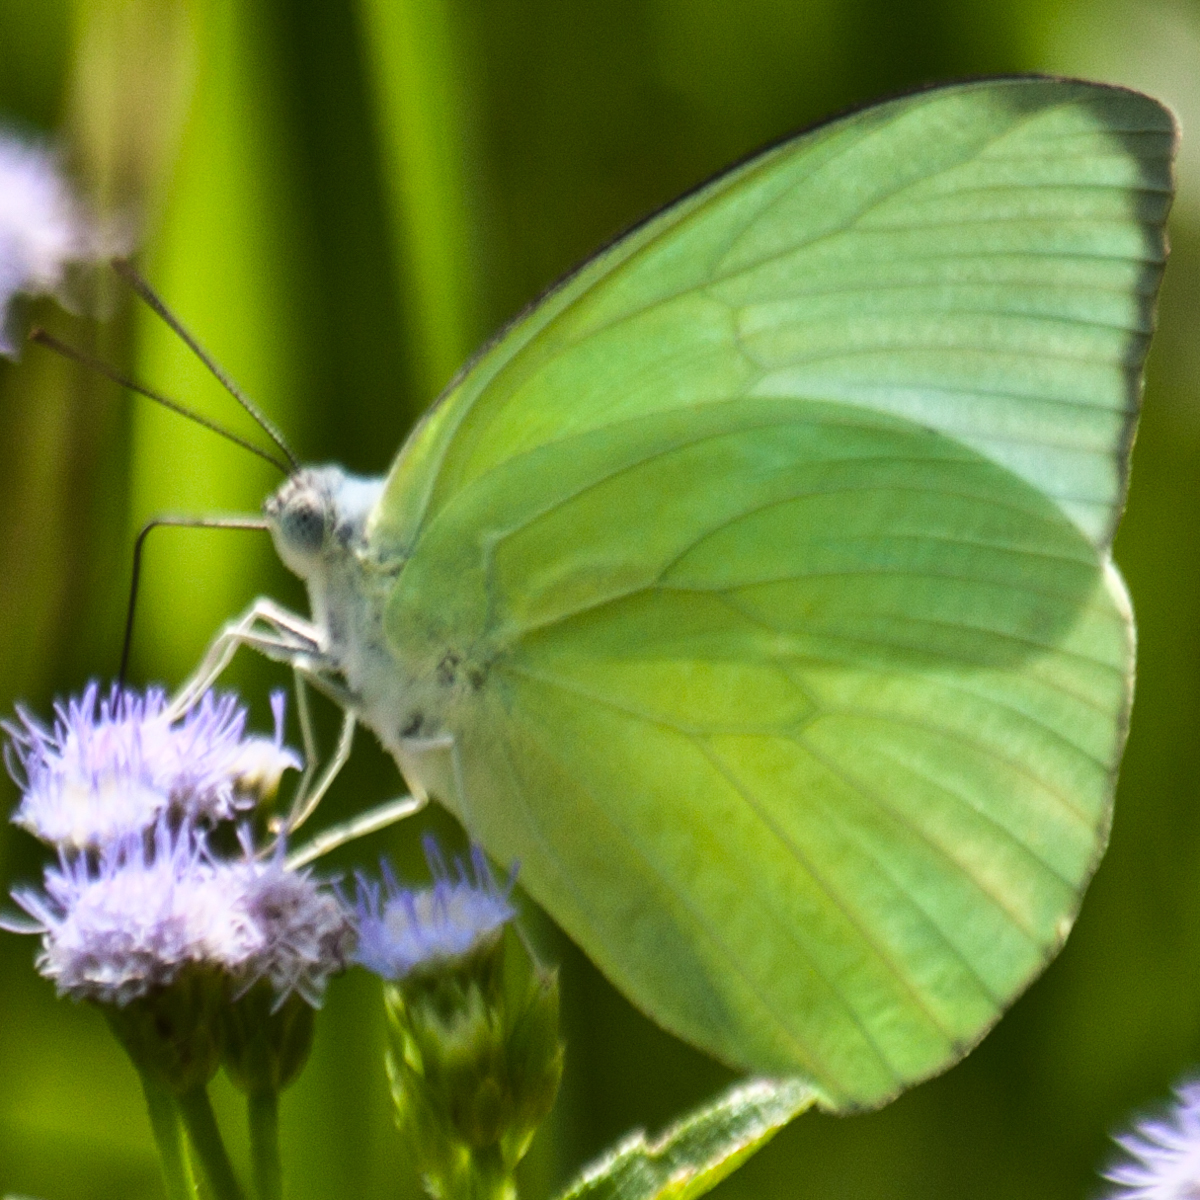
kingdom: Animalia
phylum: Arthropoda
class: Insecta
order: Lepidoptera
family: Pieridae
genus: Catopsilia
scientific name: Catopsilia pomona
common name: Common emigrant
